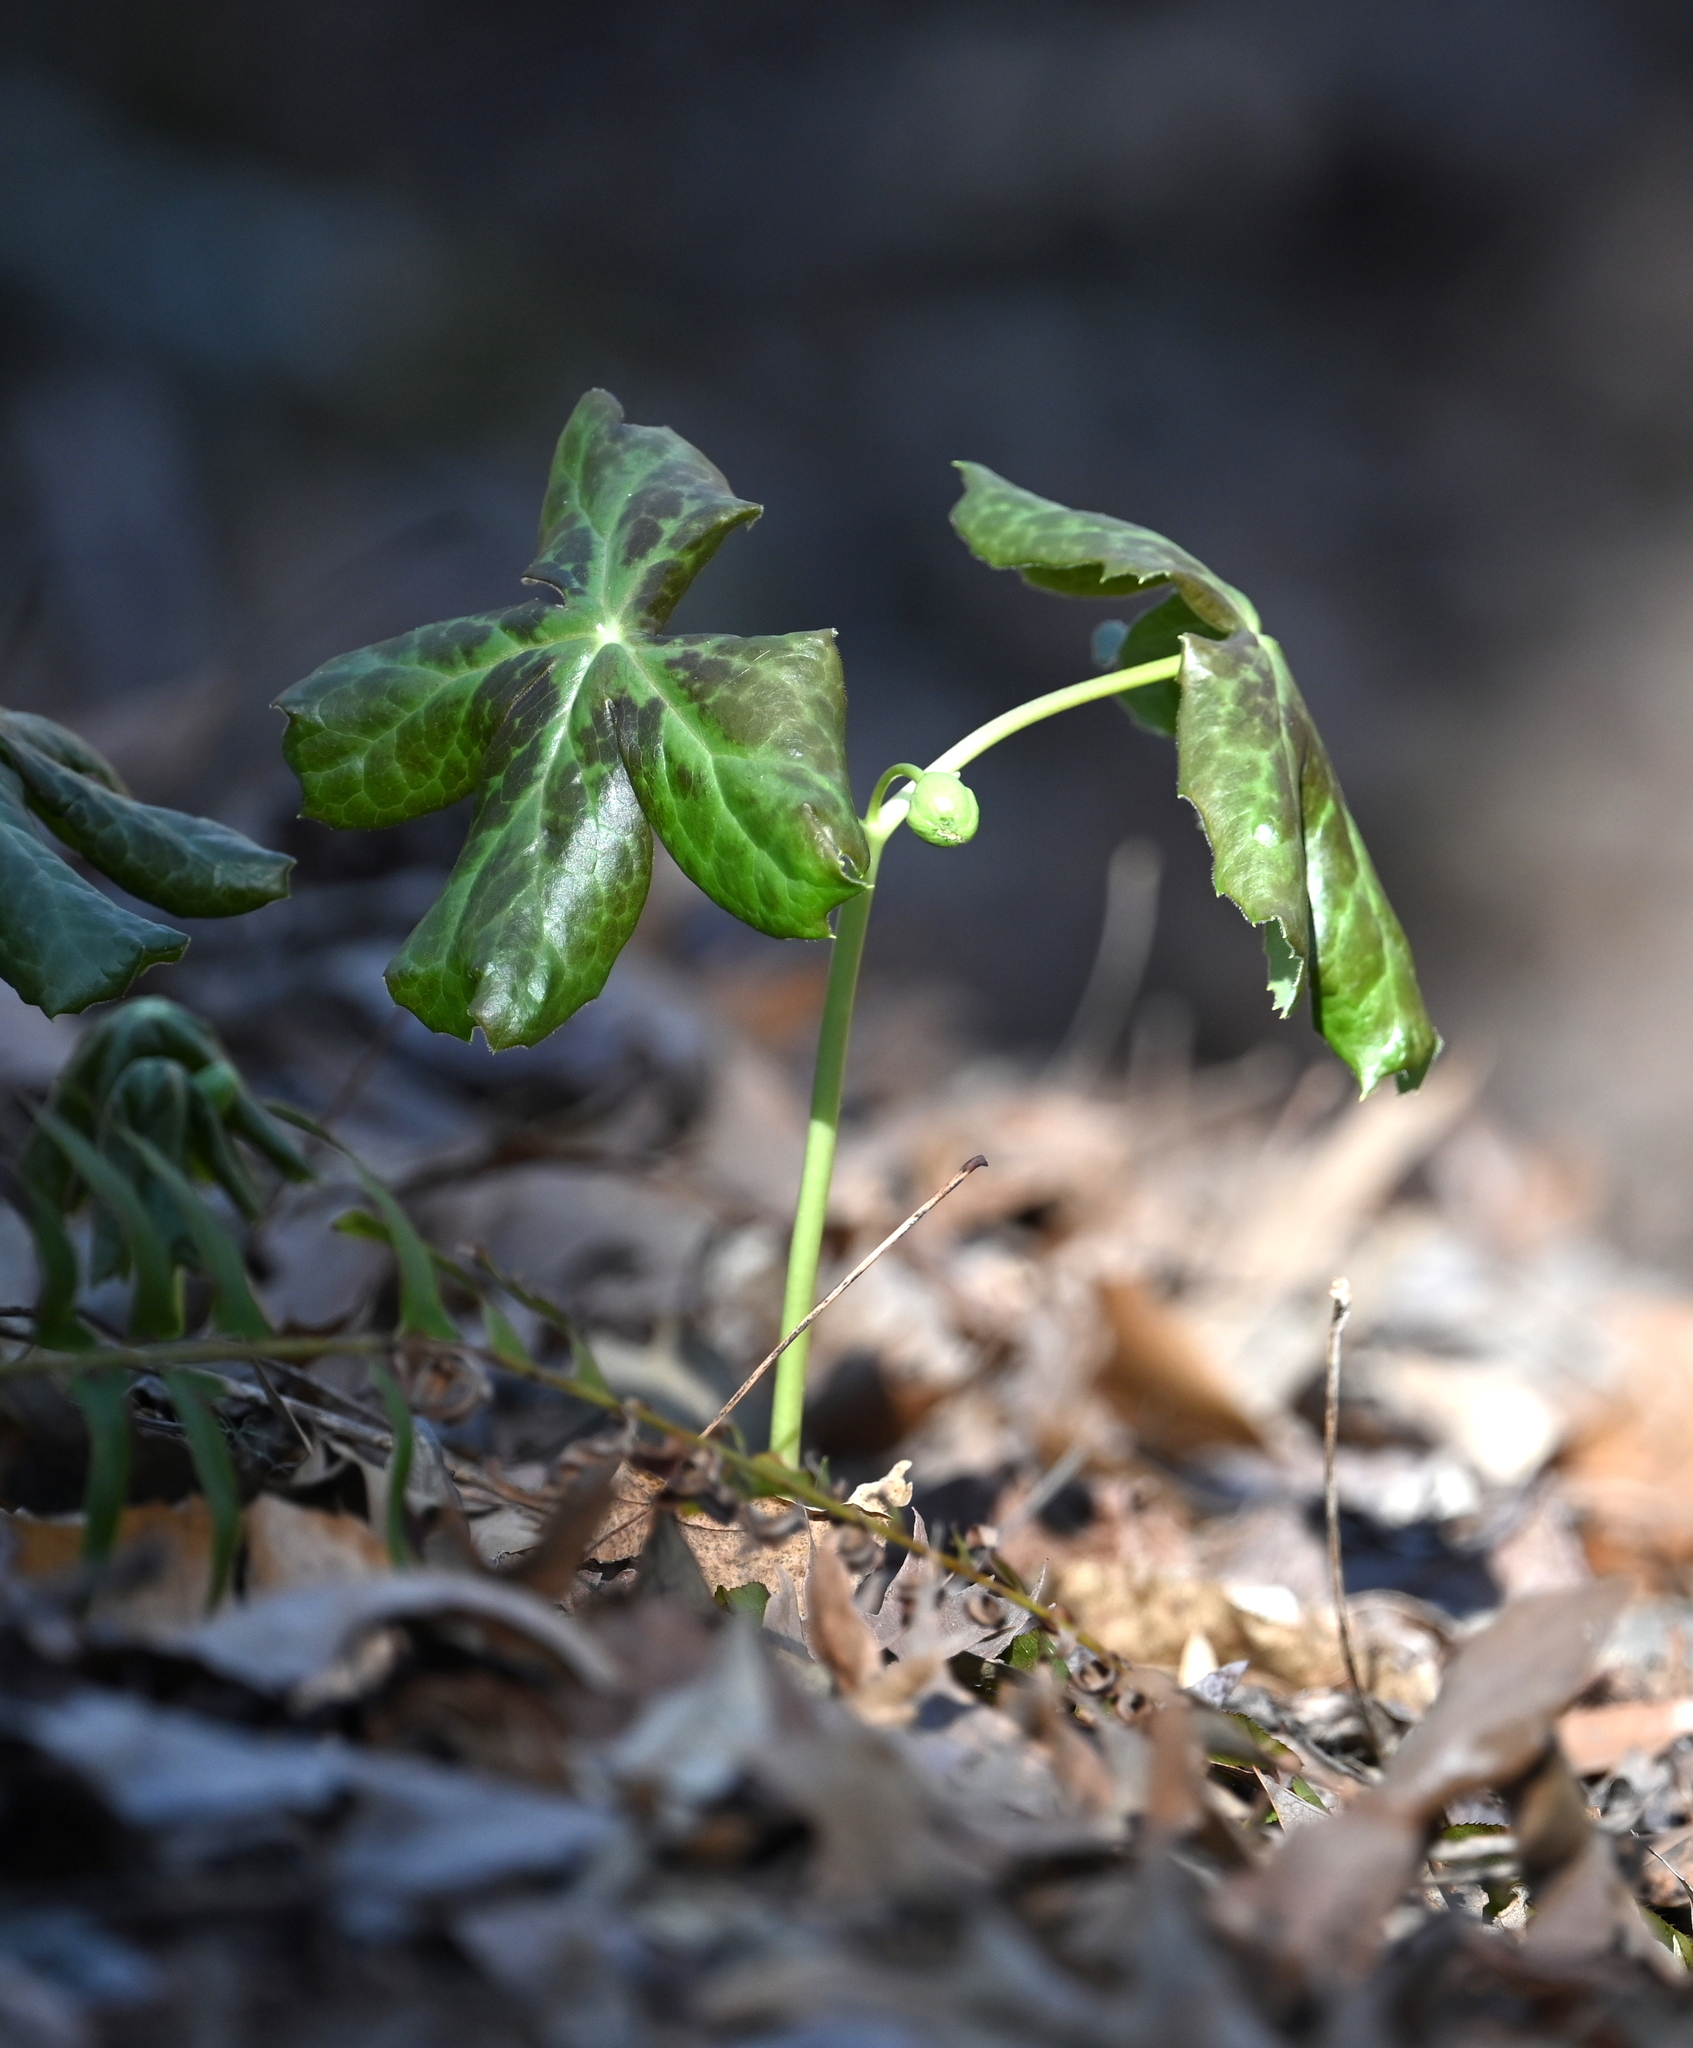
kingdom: Plantae
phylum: Tracheophyta
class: Magnoliopsida
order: Ranunculales
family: Berberidaceae
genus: Podophyllum
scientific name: Podophyllum peltatum
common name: Wild mandrake
